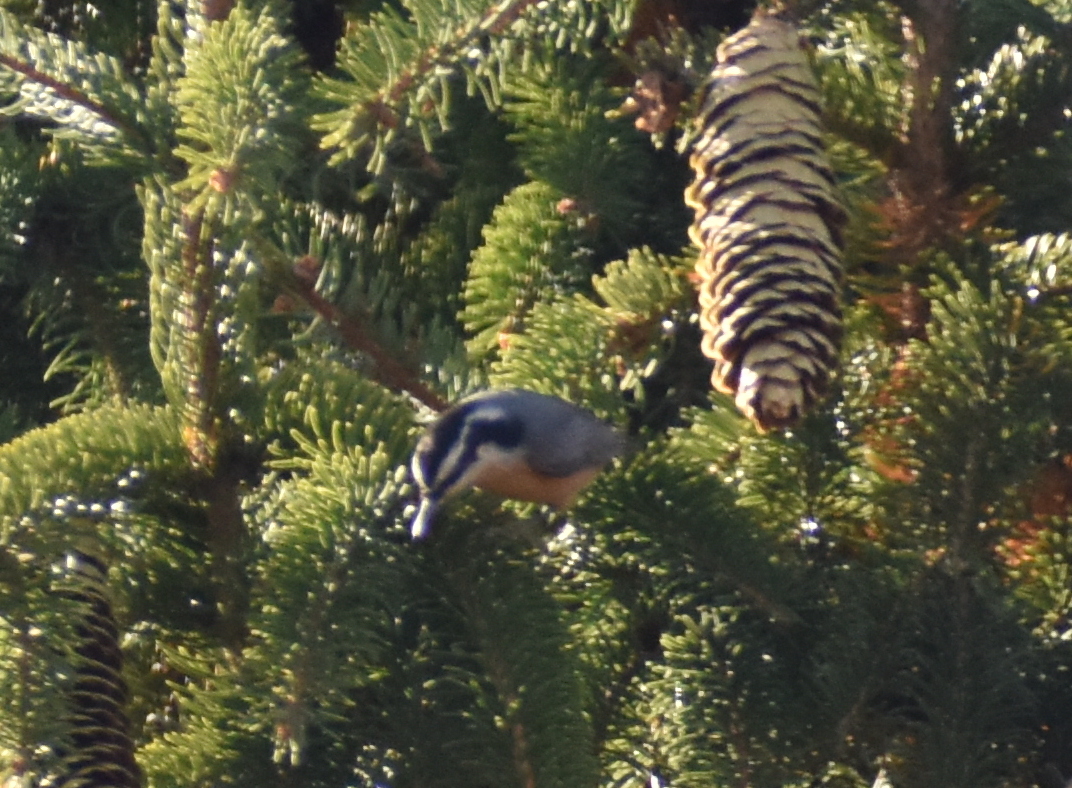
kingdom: Animalia
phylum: Chordata
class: Aves
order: Passeriformes
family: Sittidae
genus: Sitta
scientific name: Sitta canadensis
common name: Red-breasted nuthatch
